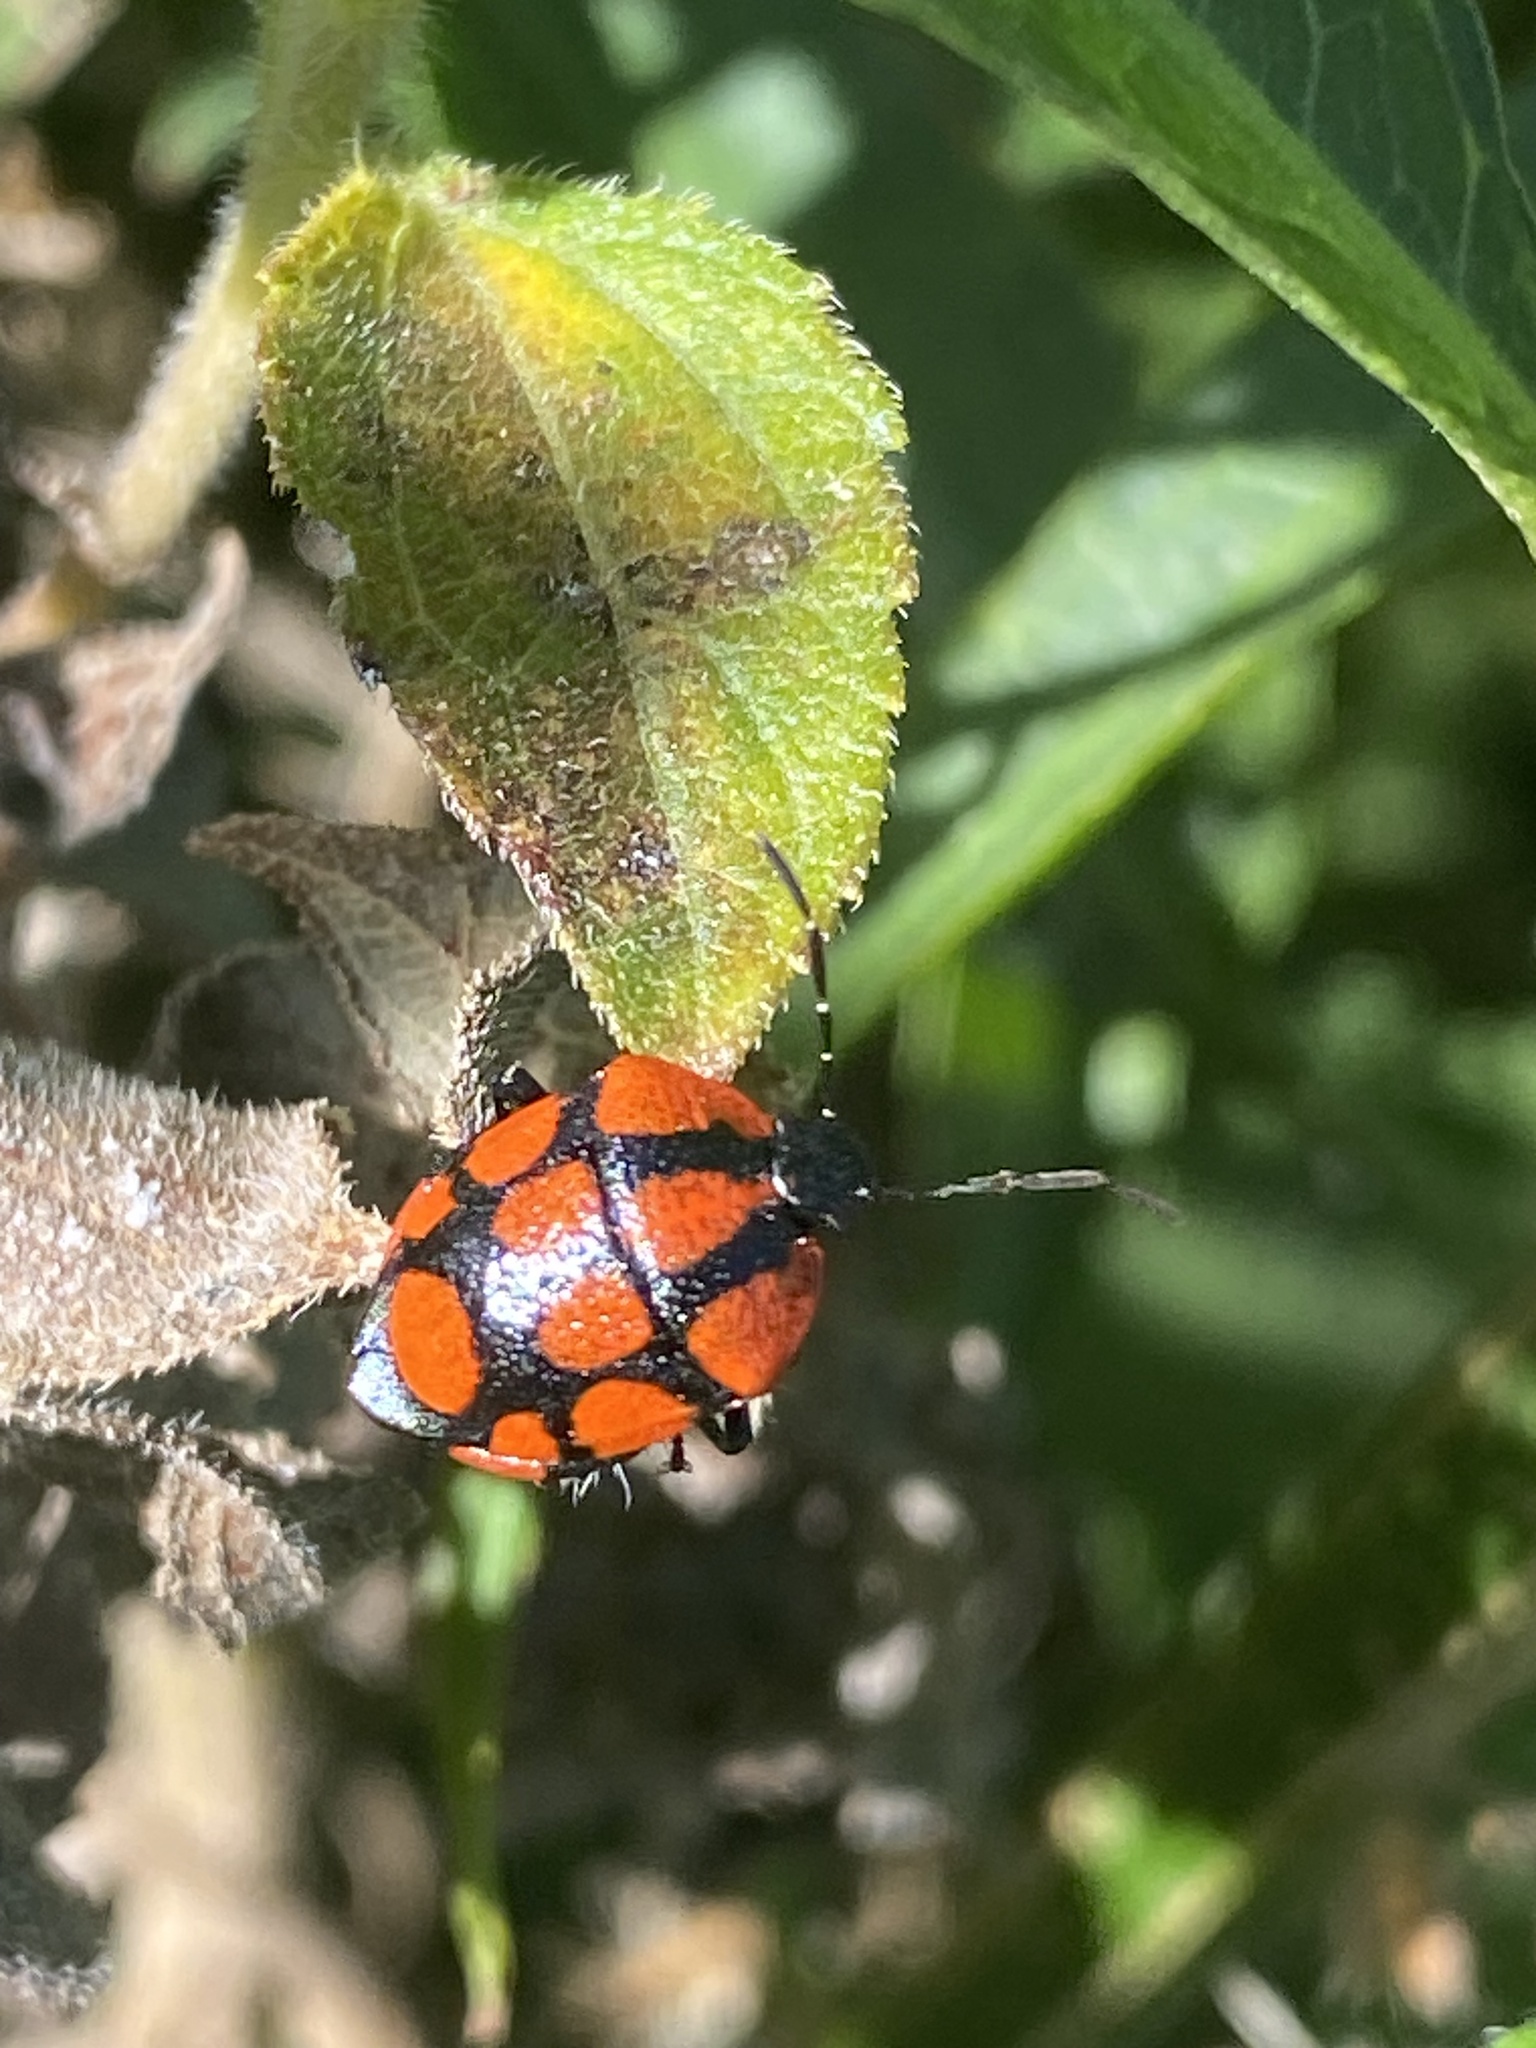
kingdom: Animalia
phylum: Arthropoda
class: Insecta
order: Hemiptera
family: Pentatomidae
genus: Stiretrus
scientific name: Stiretrus
